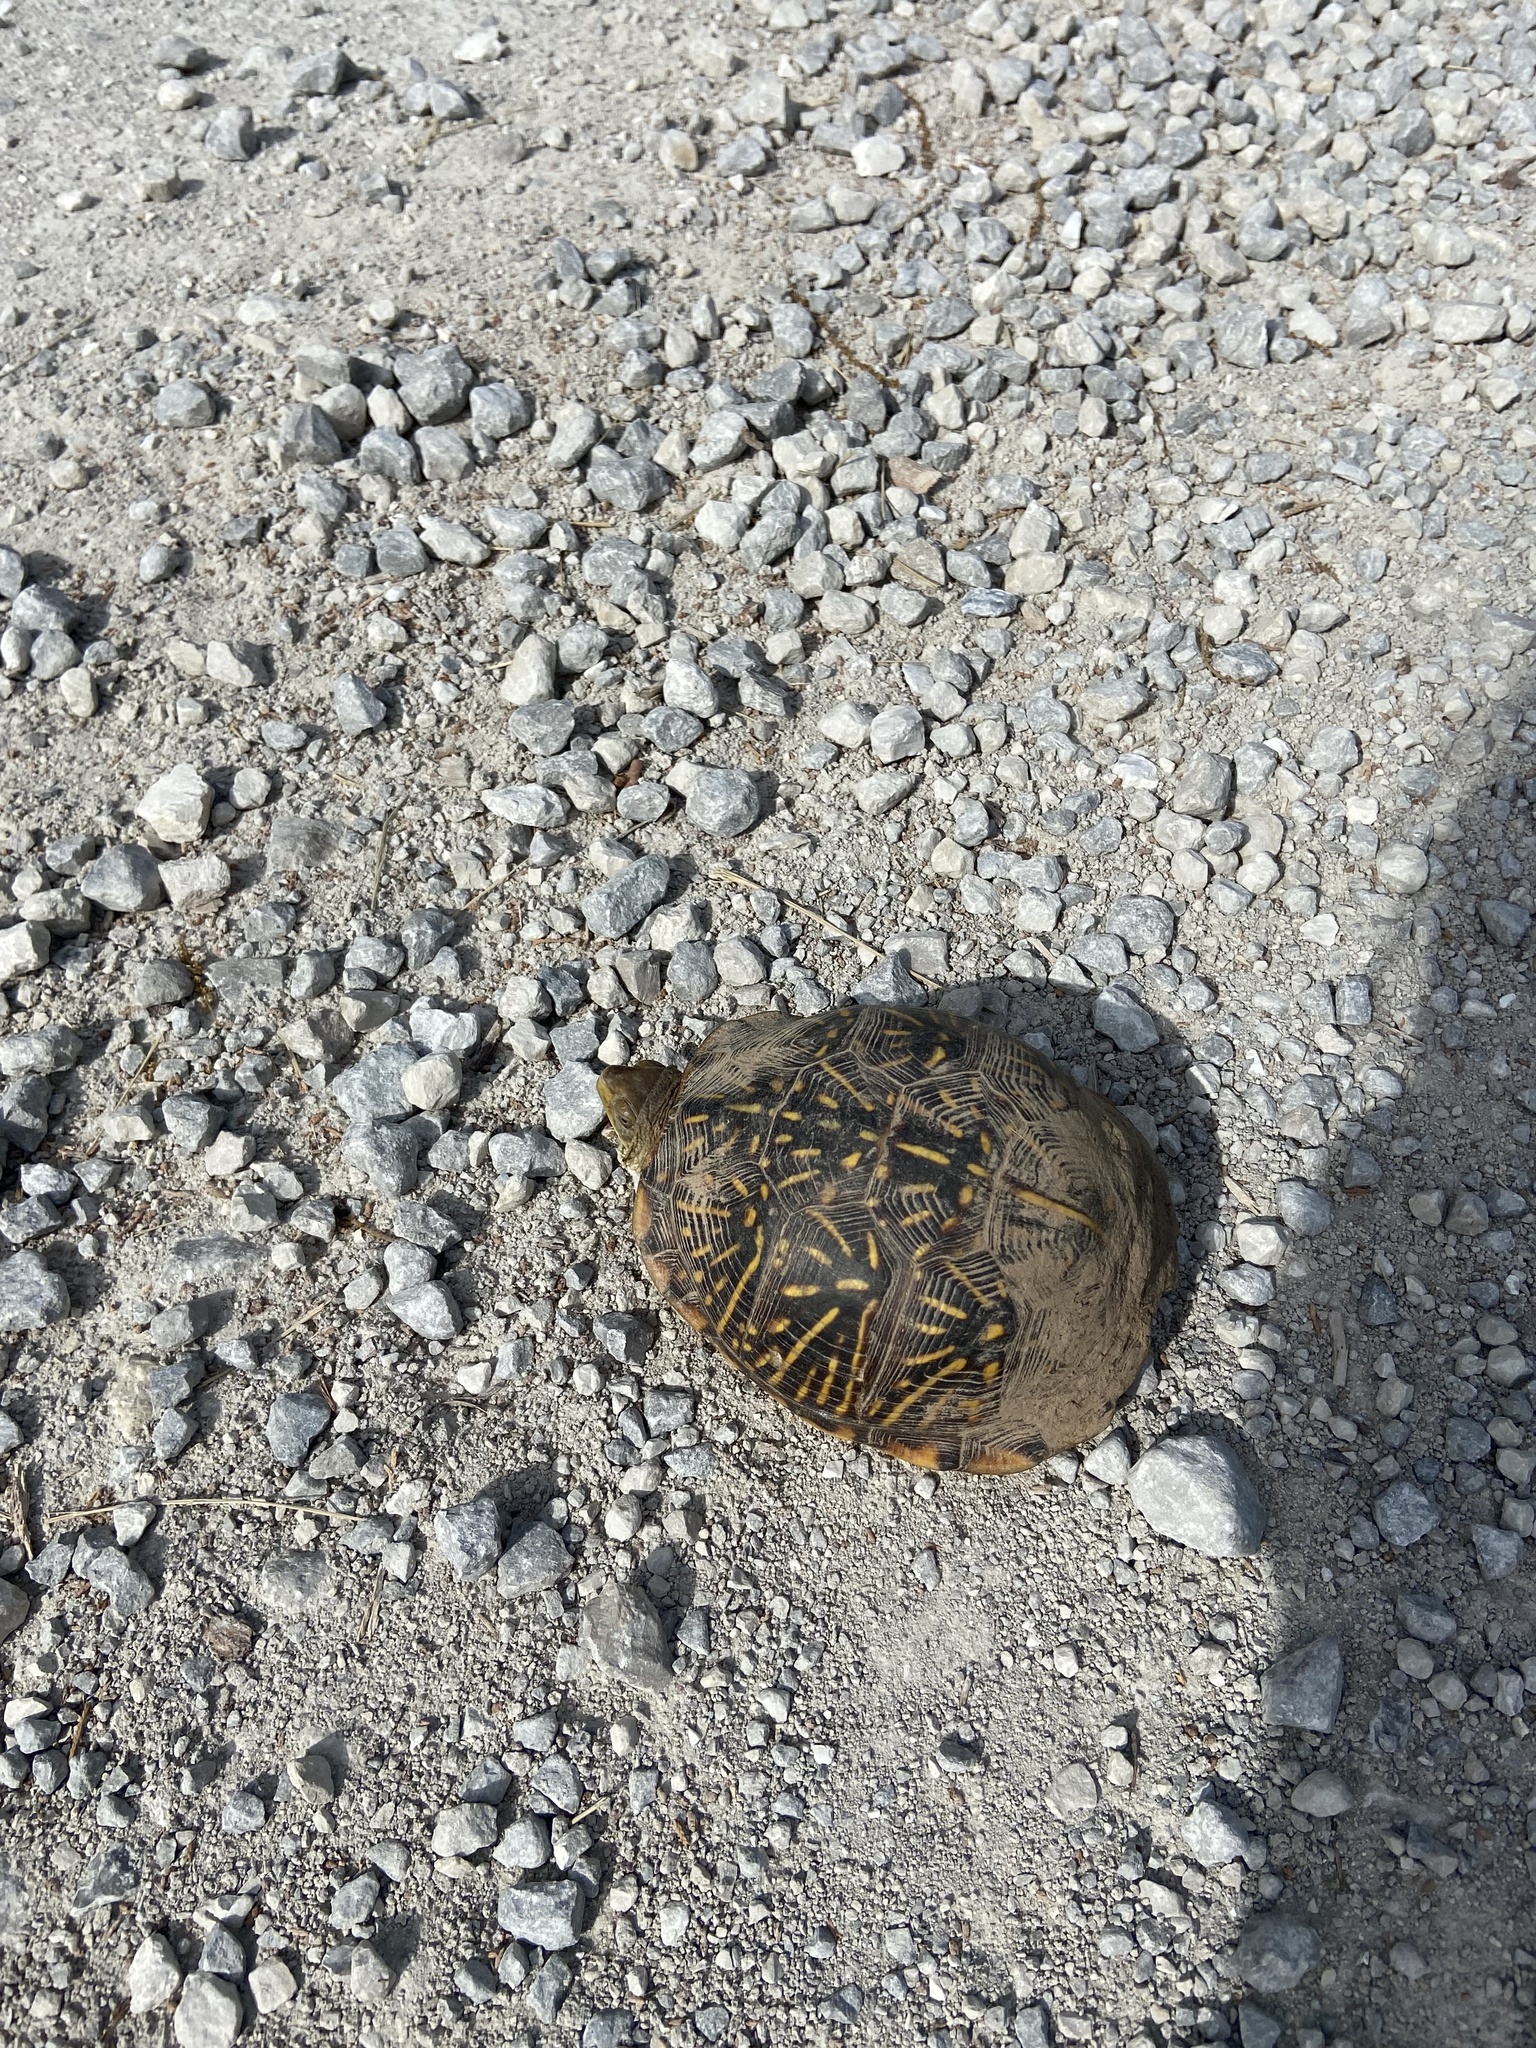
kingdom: Animalia
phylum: Chordata
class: Testudines
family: Emydidae
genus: Terrapene
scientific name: Terrapene ornata
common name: Western box turtle
